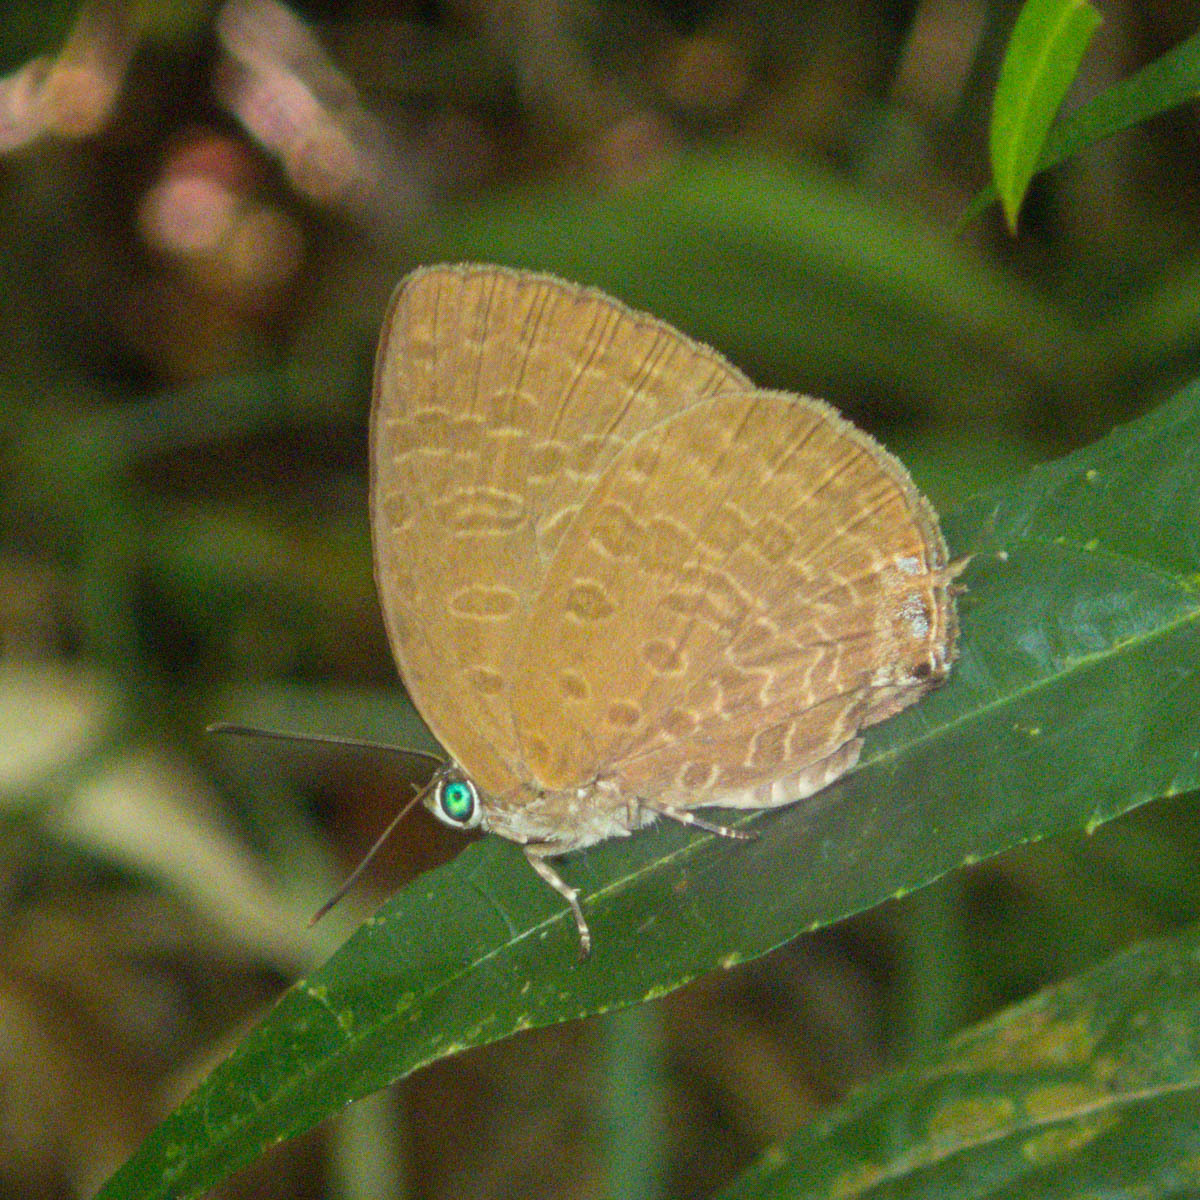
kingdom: Animalia
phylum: Arthropoda
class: Insecta
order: Lepidoptera
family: Lycaenidae
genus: Arhopala
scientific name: Arhopala elopura
